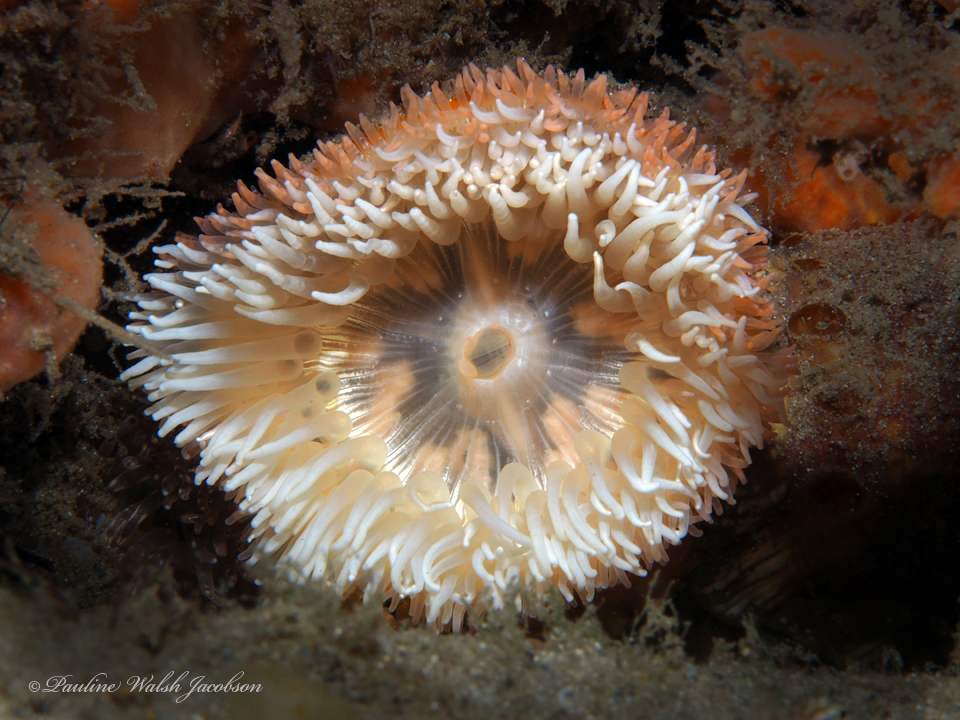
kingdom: Animalia
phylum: Cnidaria
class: Anthozoa
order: Actiniaria
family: Hormathiidae
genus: Calliactis
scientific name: Calliactis tricolor
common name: Hermit anemone
